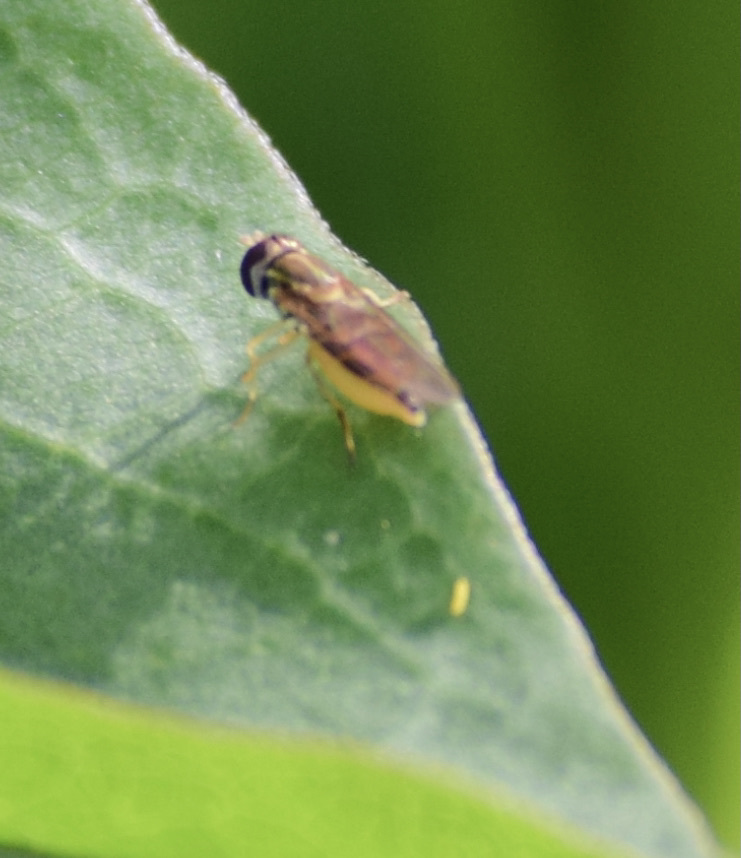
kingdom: Animalia
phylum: Arthropoda
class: Insecta
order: Diptera
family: Syrphidae
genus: Toxomerus
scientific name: Toxomerus marginatus
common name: Syrphid fly
